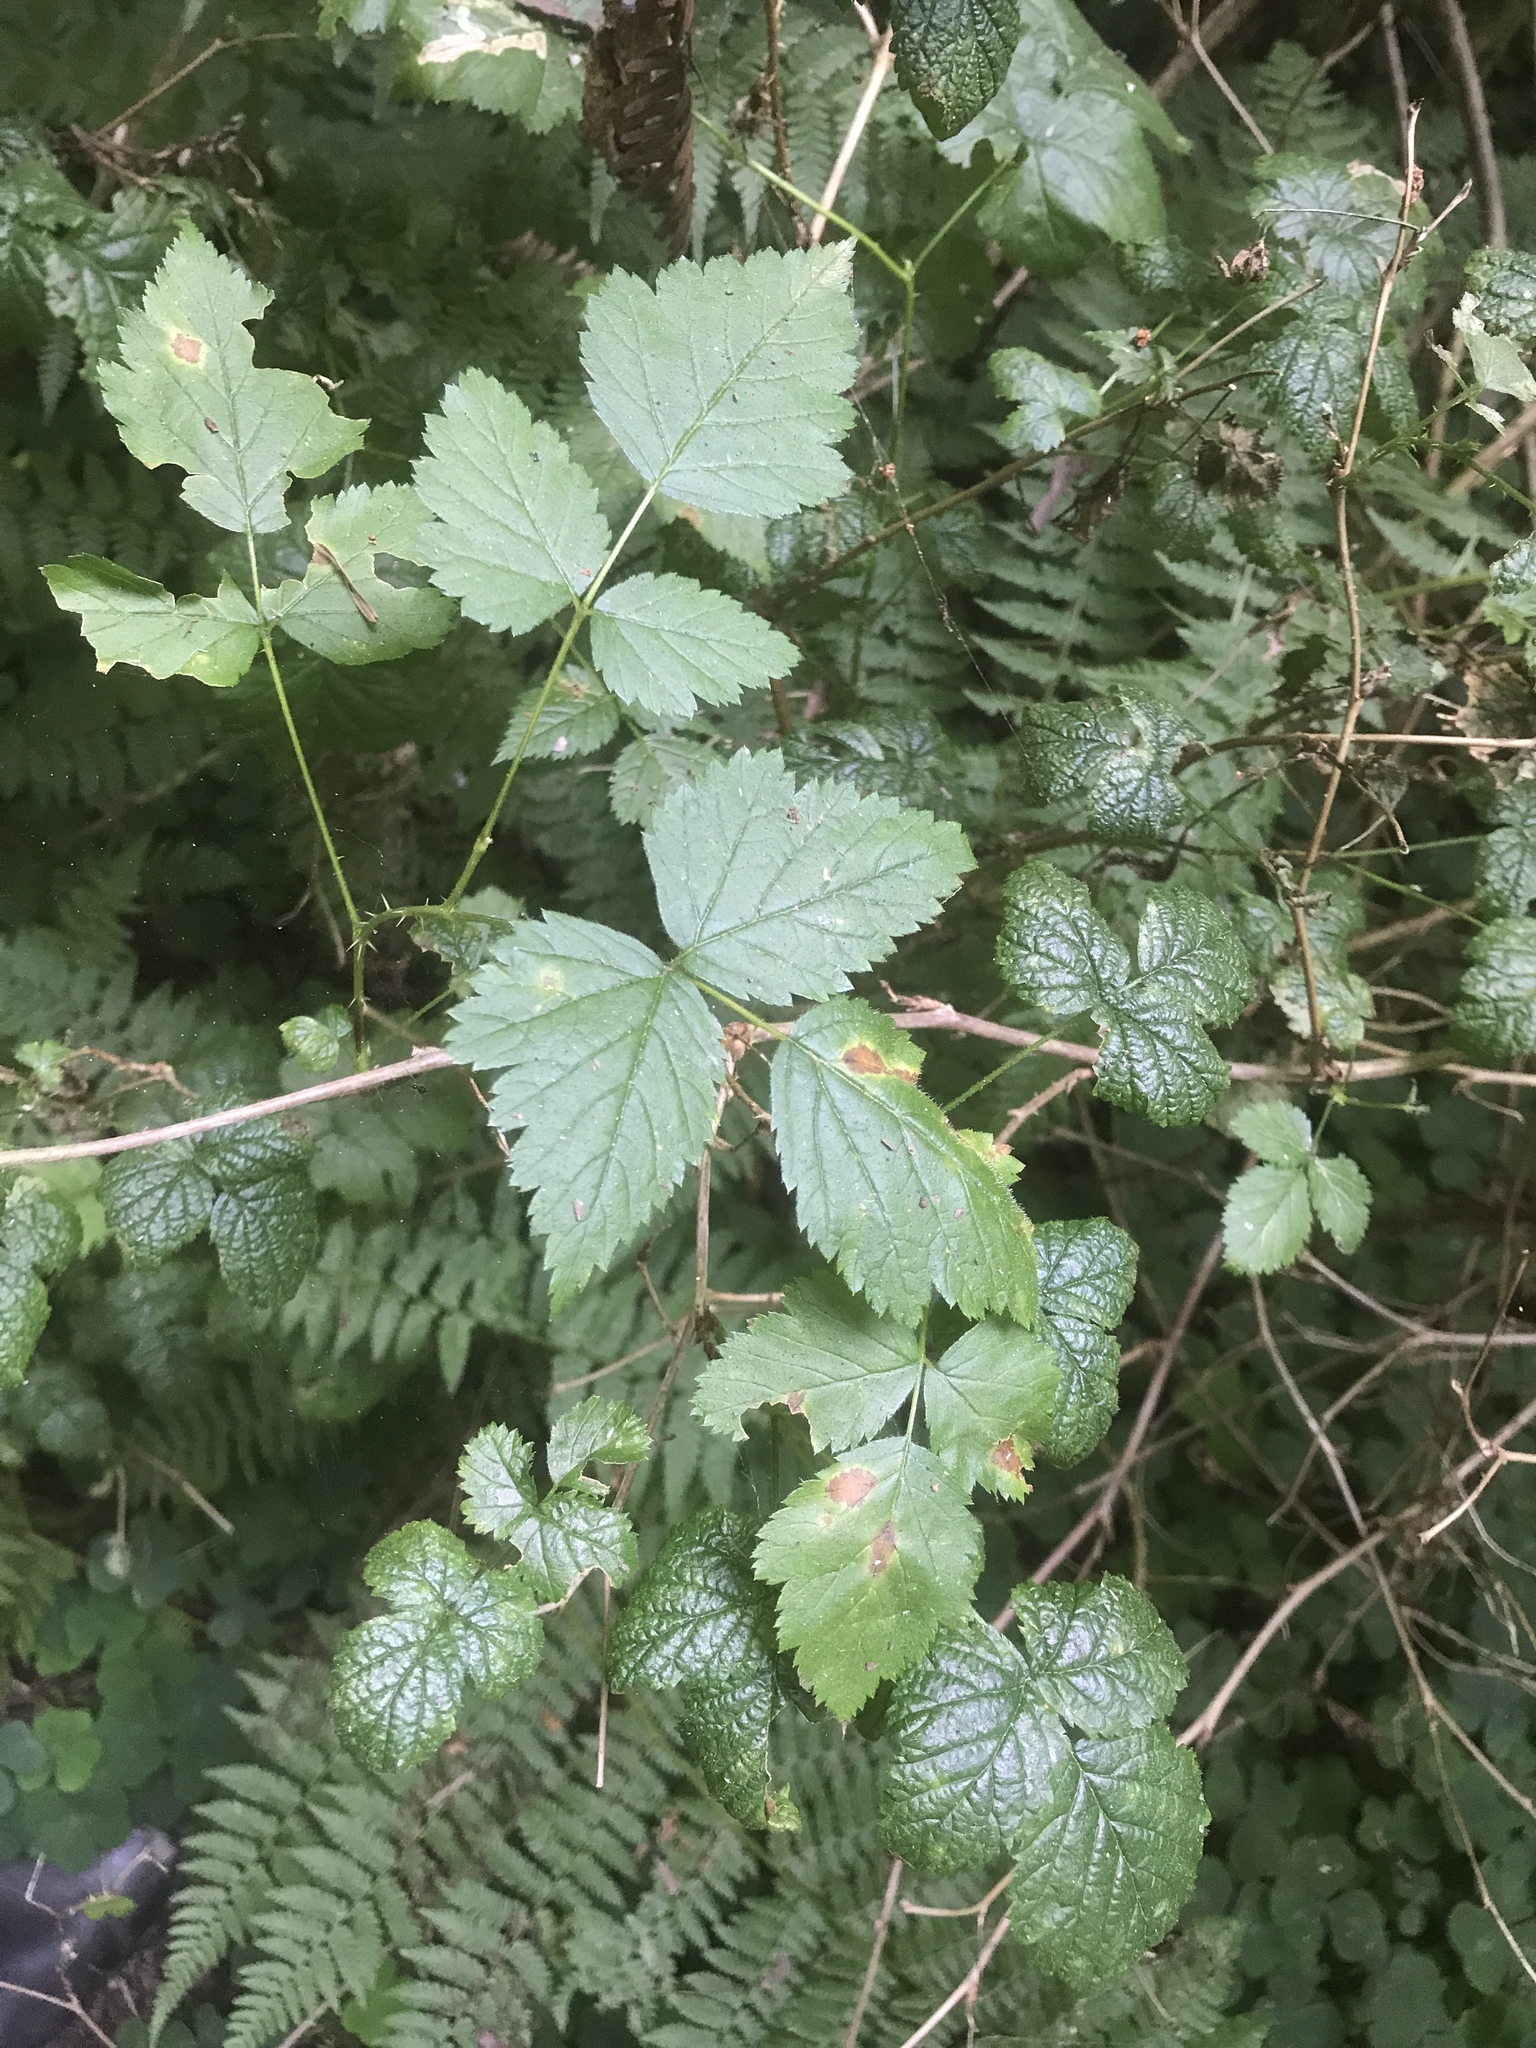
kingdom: Plantae
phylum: Tracheophyta
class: Magnoliopsida
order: Rosales
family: Rosaceae
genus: Rubus
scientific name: Rubus spectabilis
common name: Salmonberry
